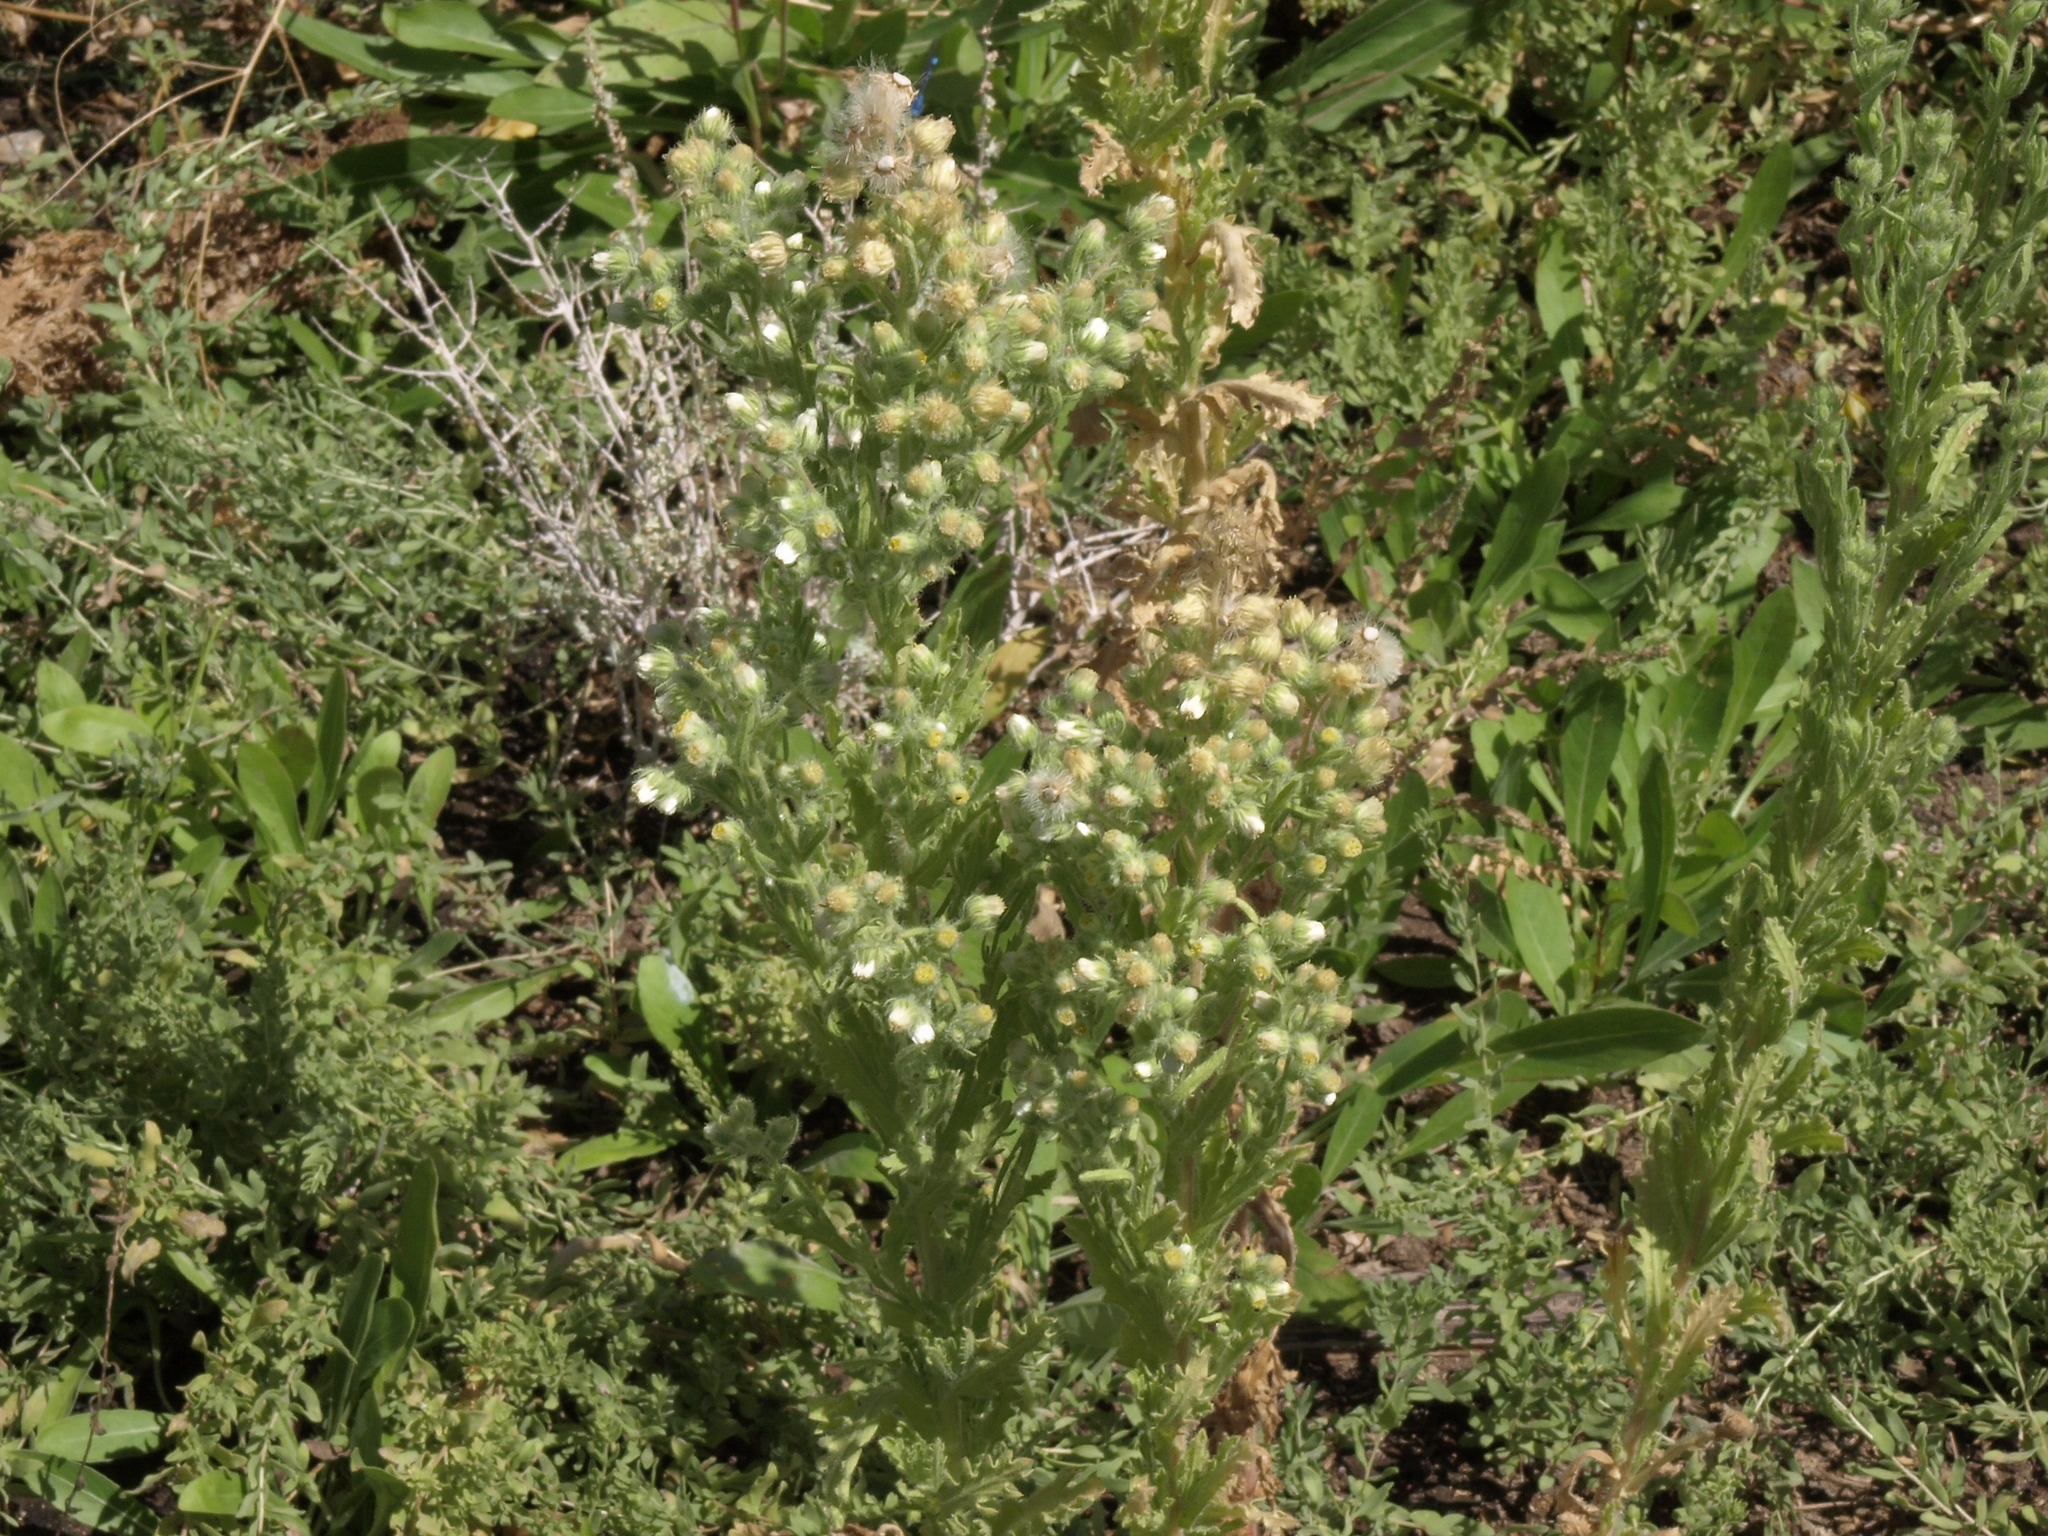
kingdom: Plantae
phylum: Tracheophyta
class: Magnoliopsida
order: Asterales
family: Asteraceae
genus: Laennecia
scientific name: Laennecia coulteri
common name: Coulter's woolwort
